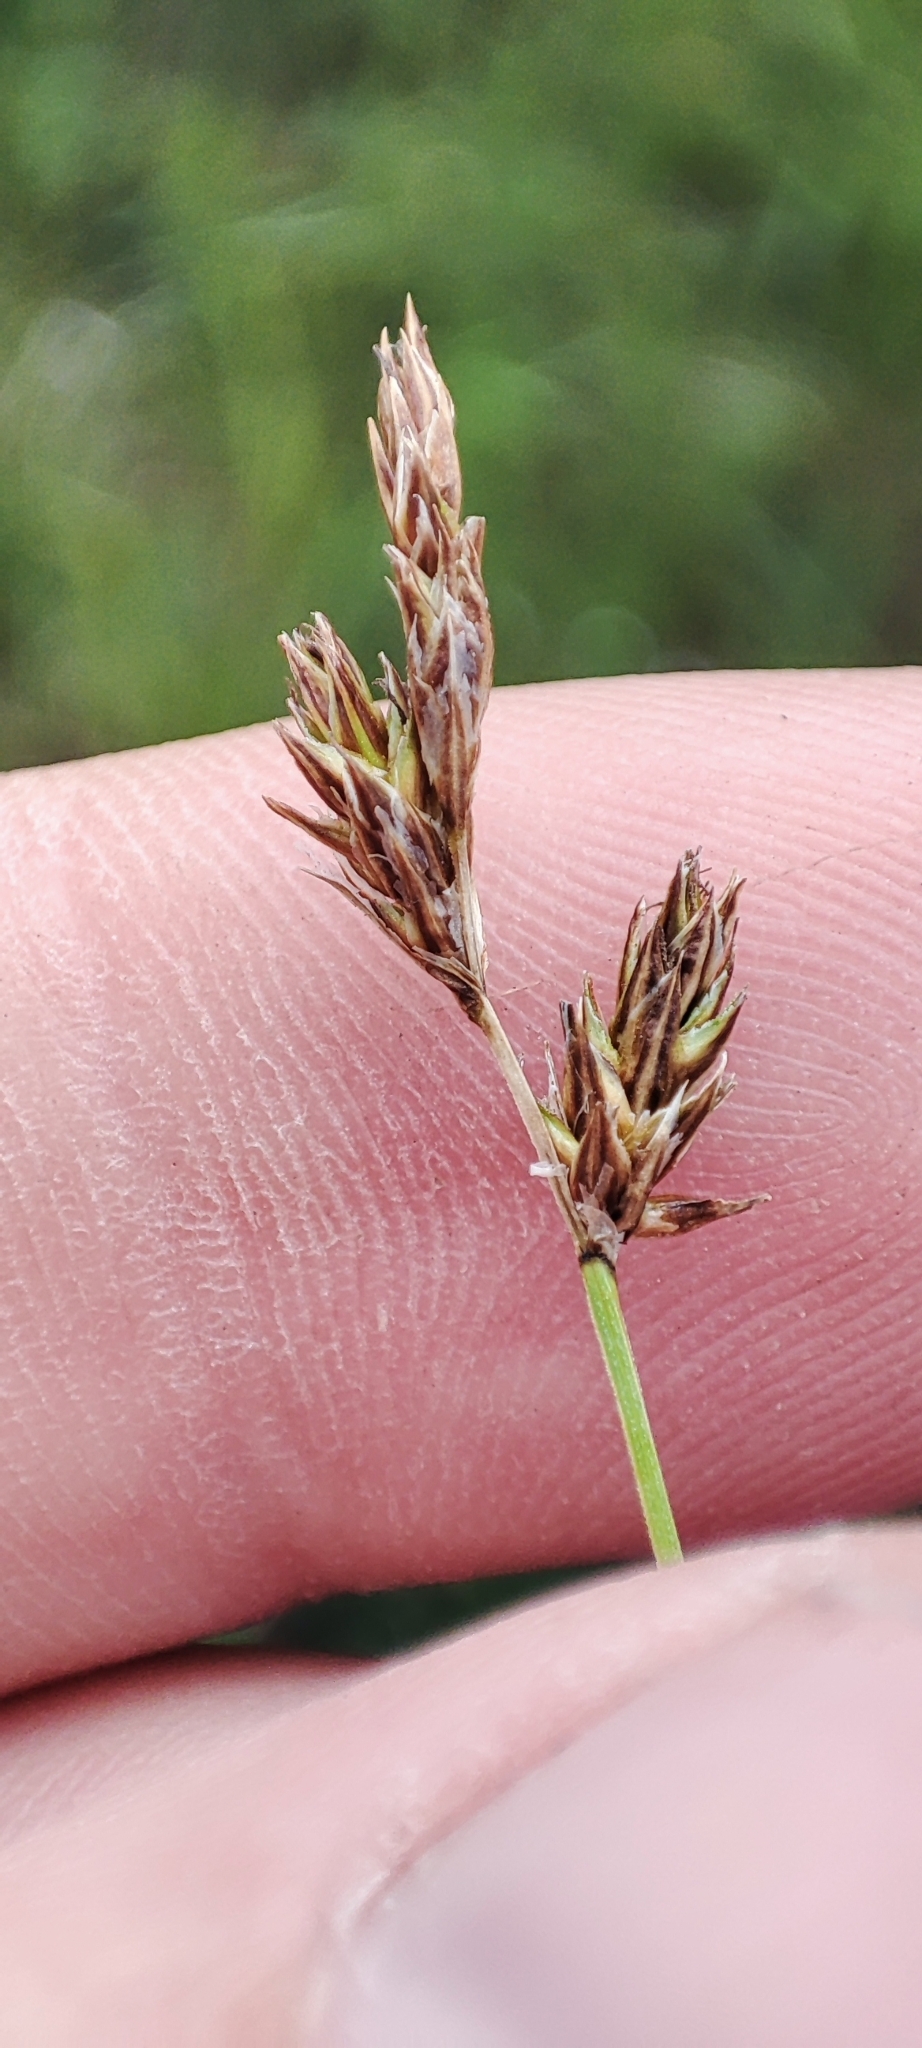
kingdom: Plantae
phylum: Tracheophyta
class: Liliopsida
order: Poales
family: Cyperaceae
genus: Carex
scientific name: Carex praecox
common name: Early sedge
